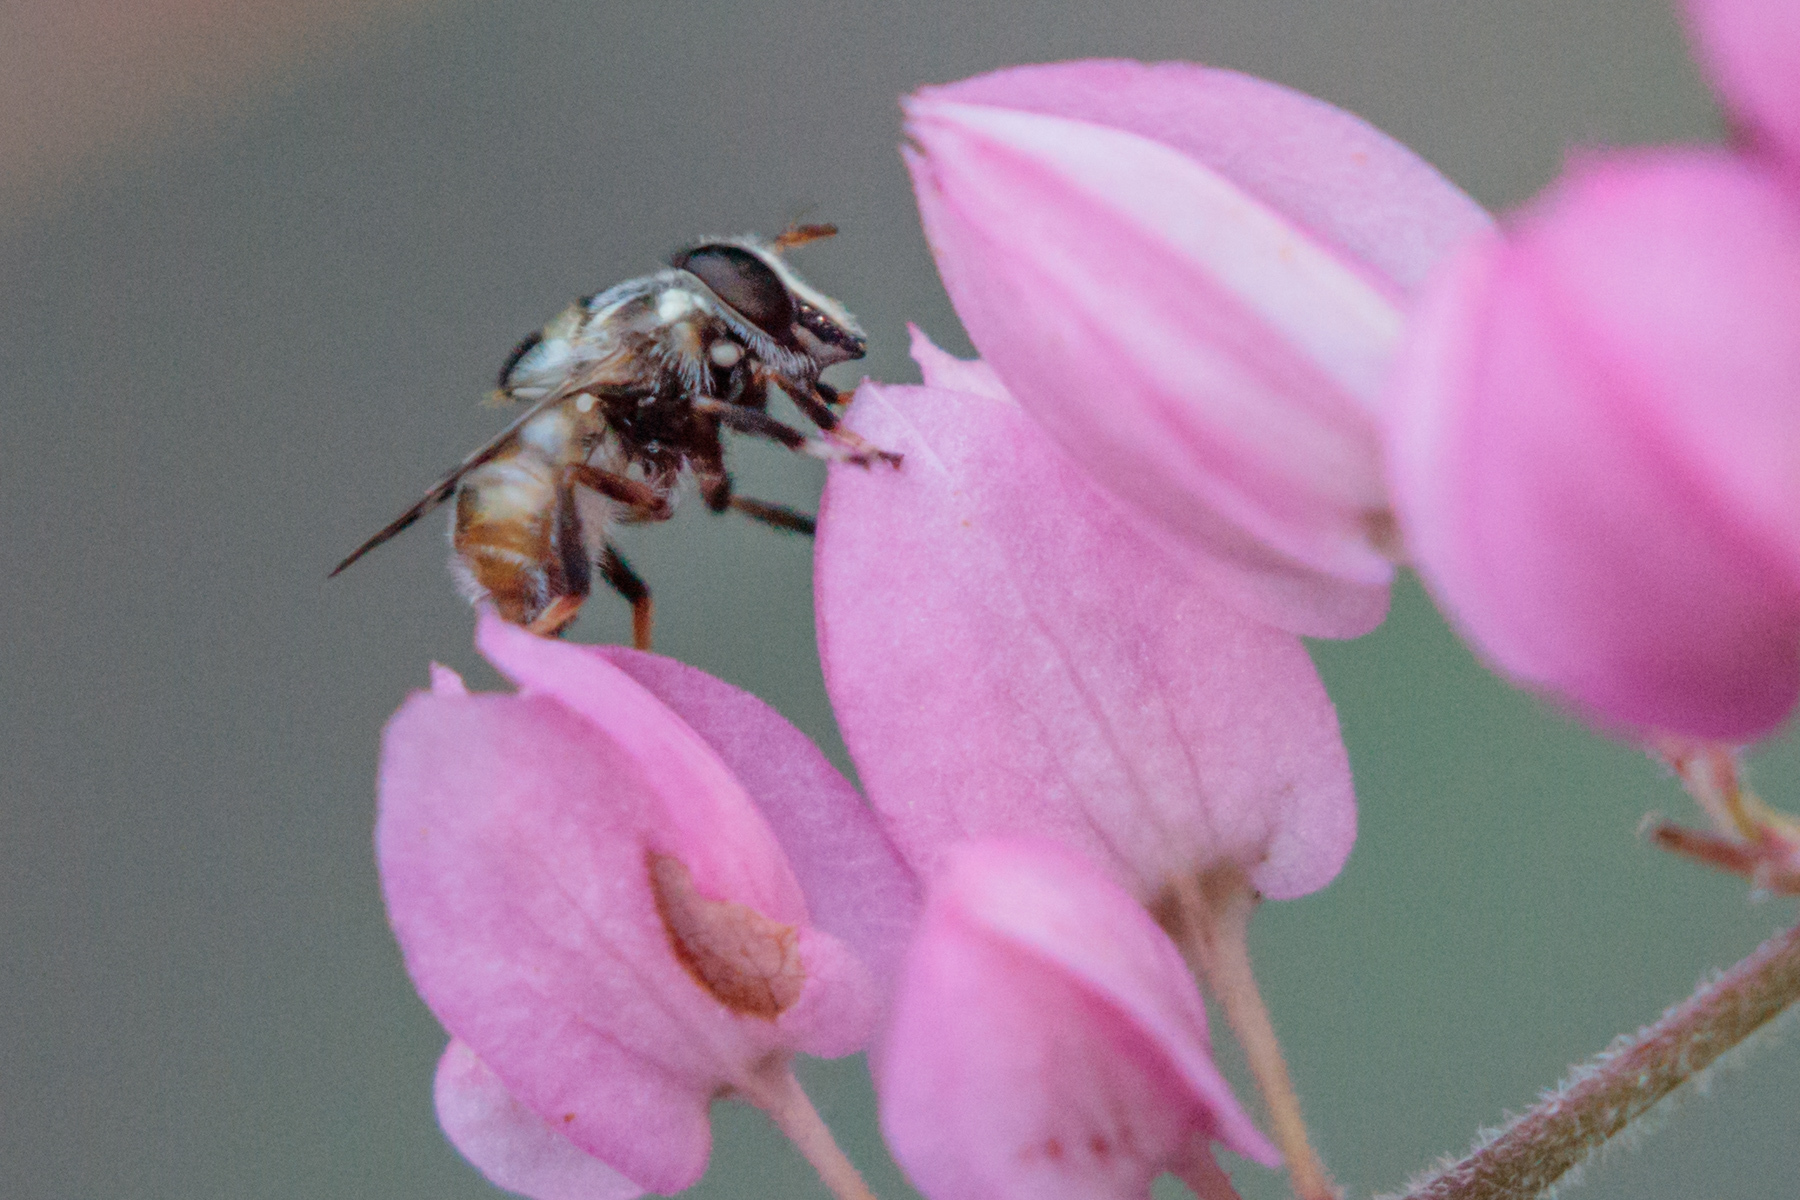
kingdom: Animalia
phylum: Arthropoda
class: Insecta
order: Diptera
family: Syrphidae
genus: Copestylum
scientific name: Copestylum tamaulipanum
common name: Syrphid fly
